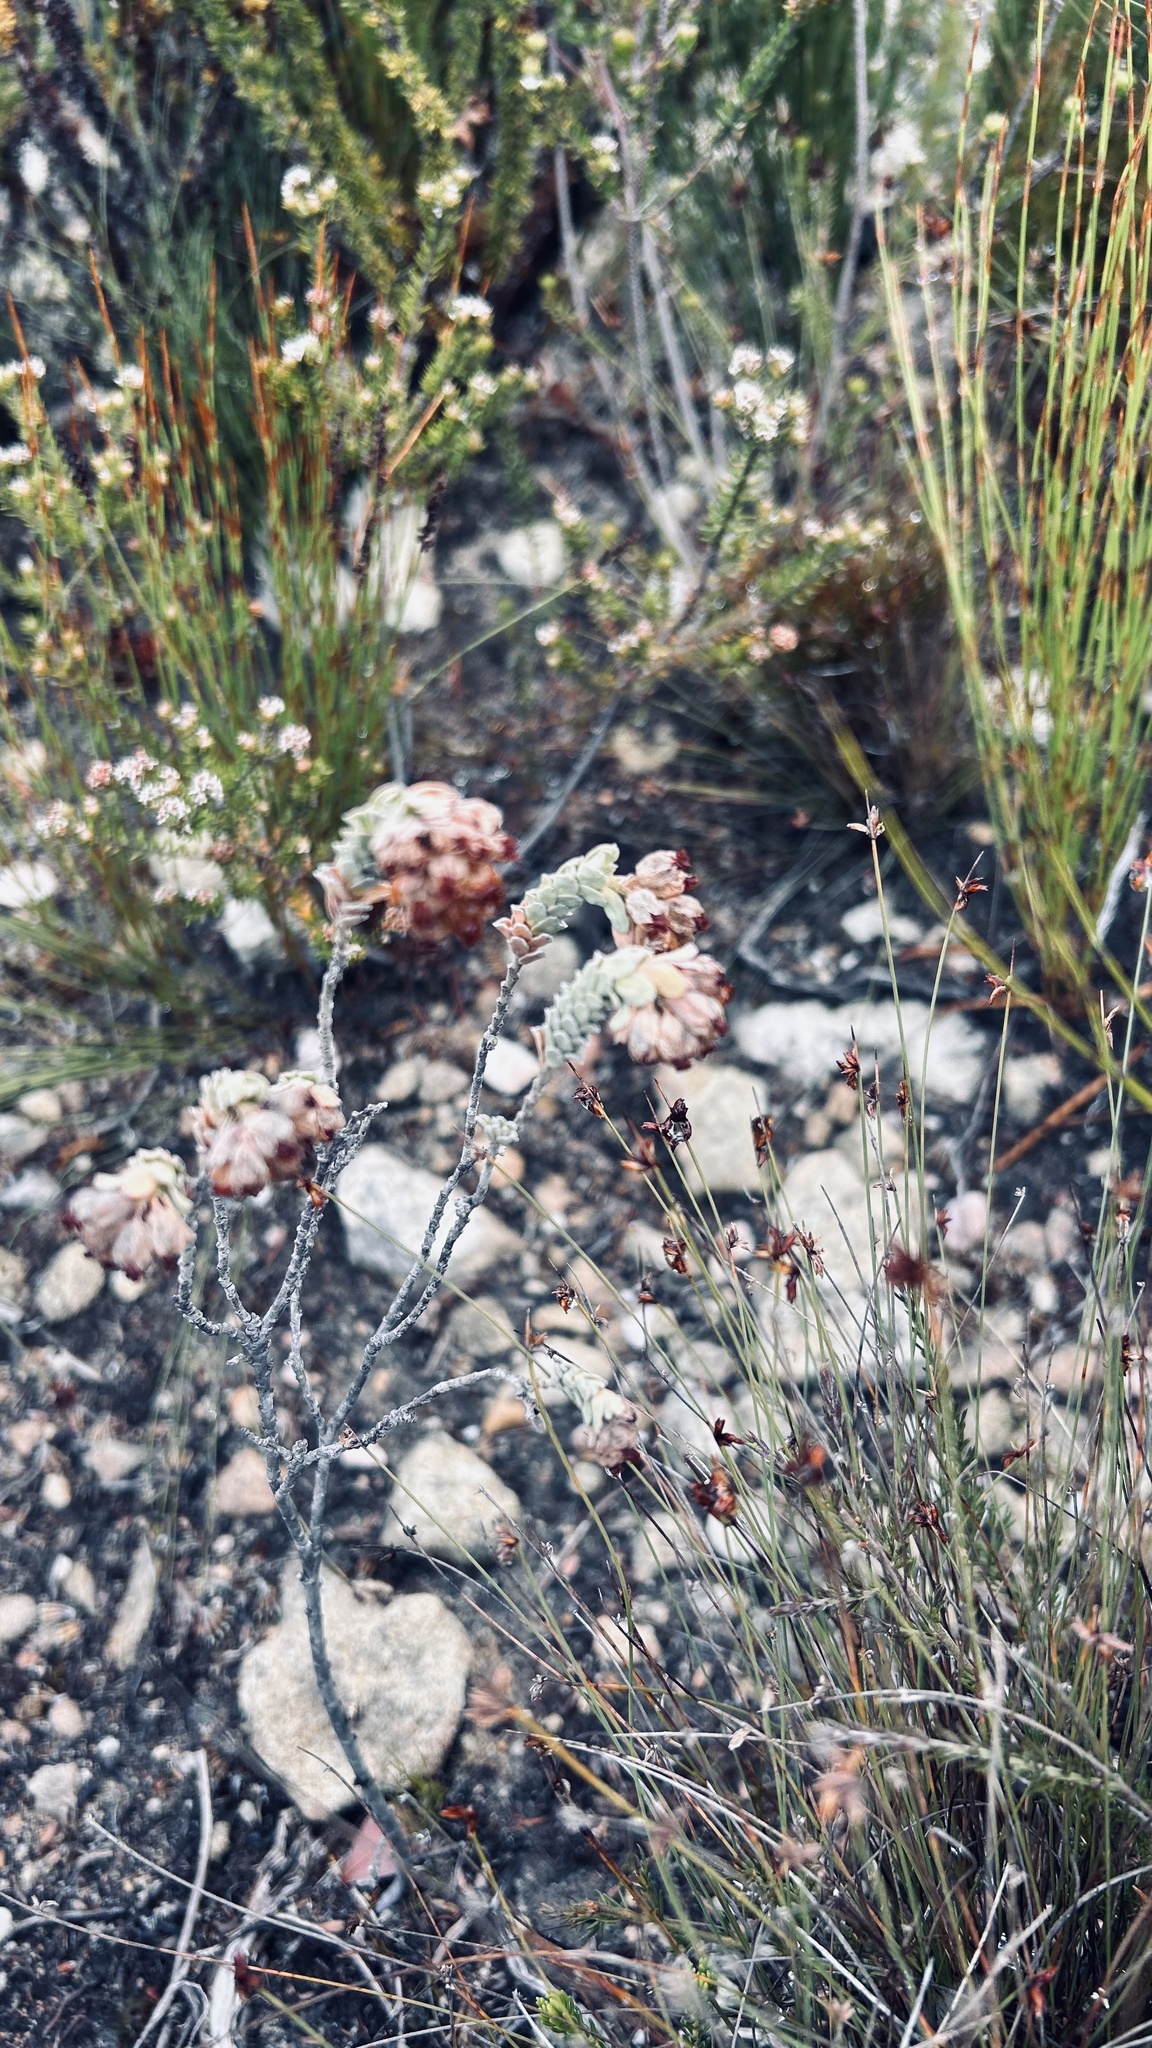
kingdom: Plantae
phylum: Tracheophyta
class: Magnoliopsida
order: Malvales
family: Malvaceae
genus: Hermannia
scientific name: Hermannia trifoliata
